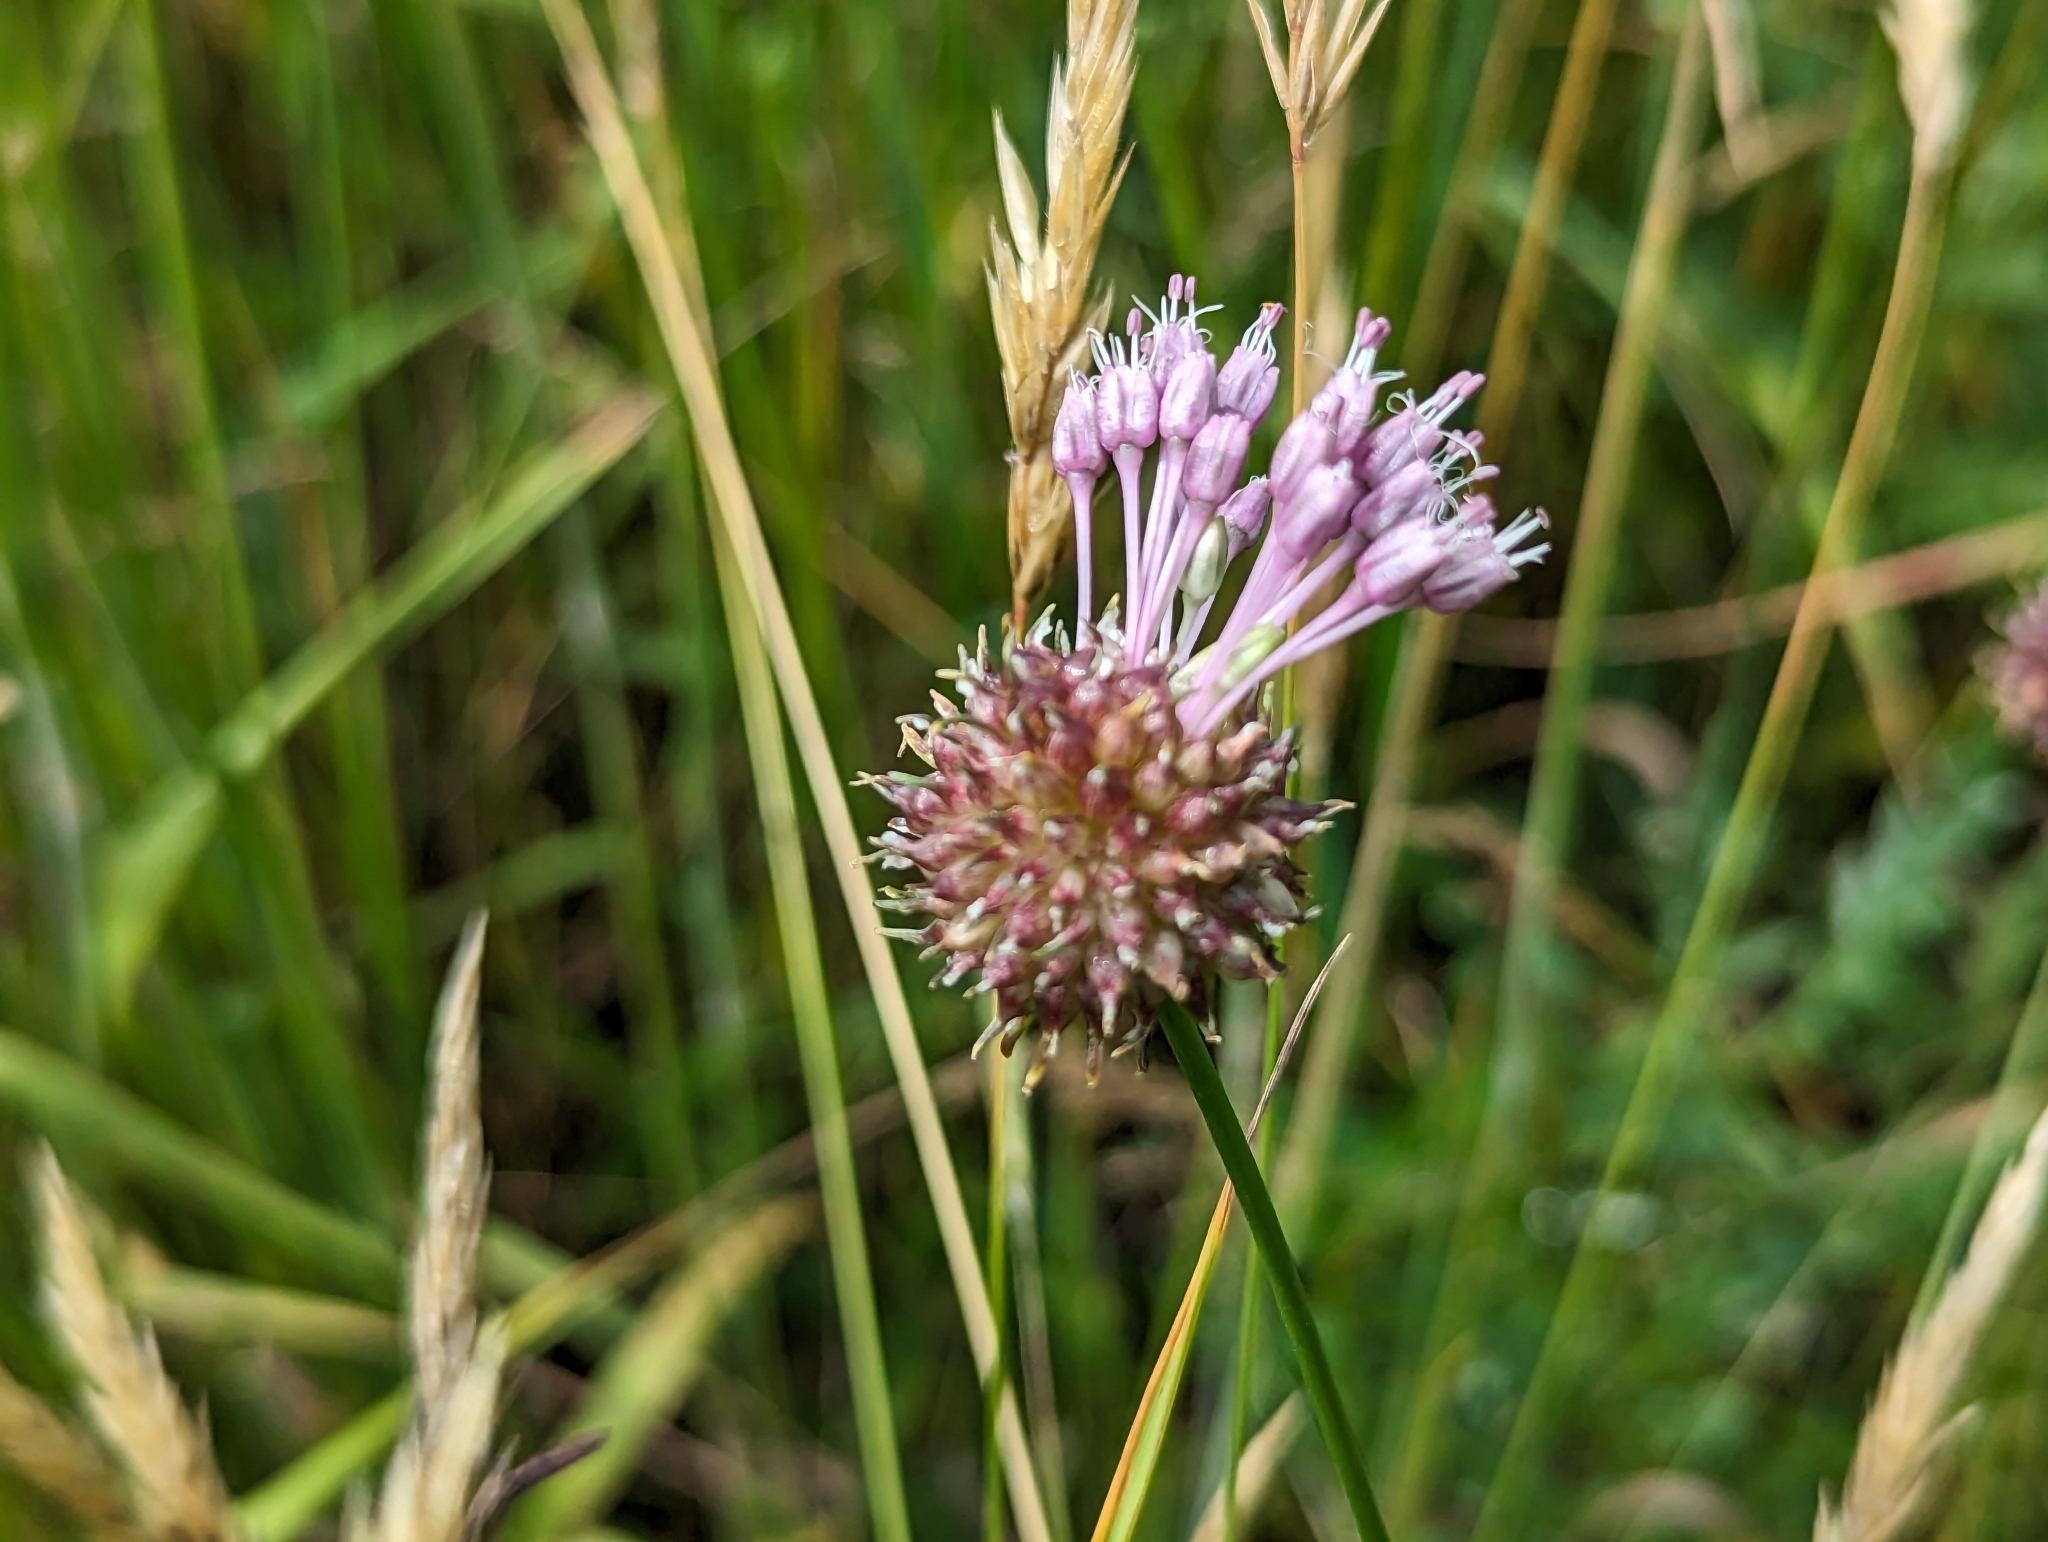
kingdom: Plantae
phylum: Tracheophyta
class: Liliopsida
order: Asparagales
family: Amaryllidaceae
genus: Allium
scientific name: Allium vineale
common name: Crow garlic
